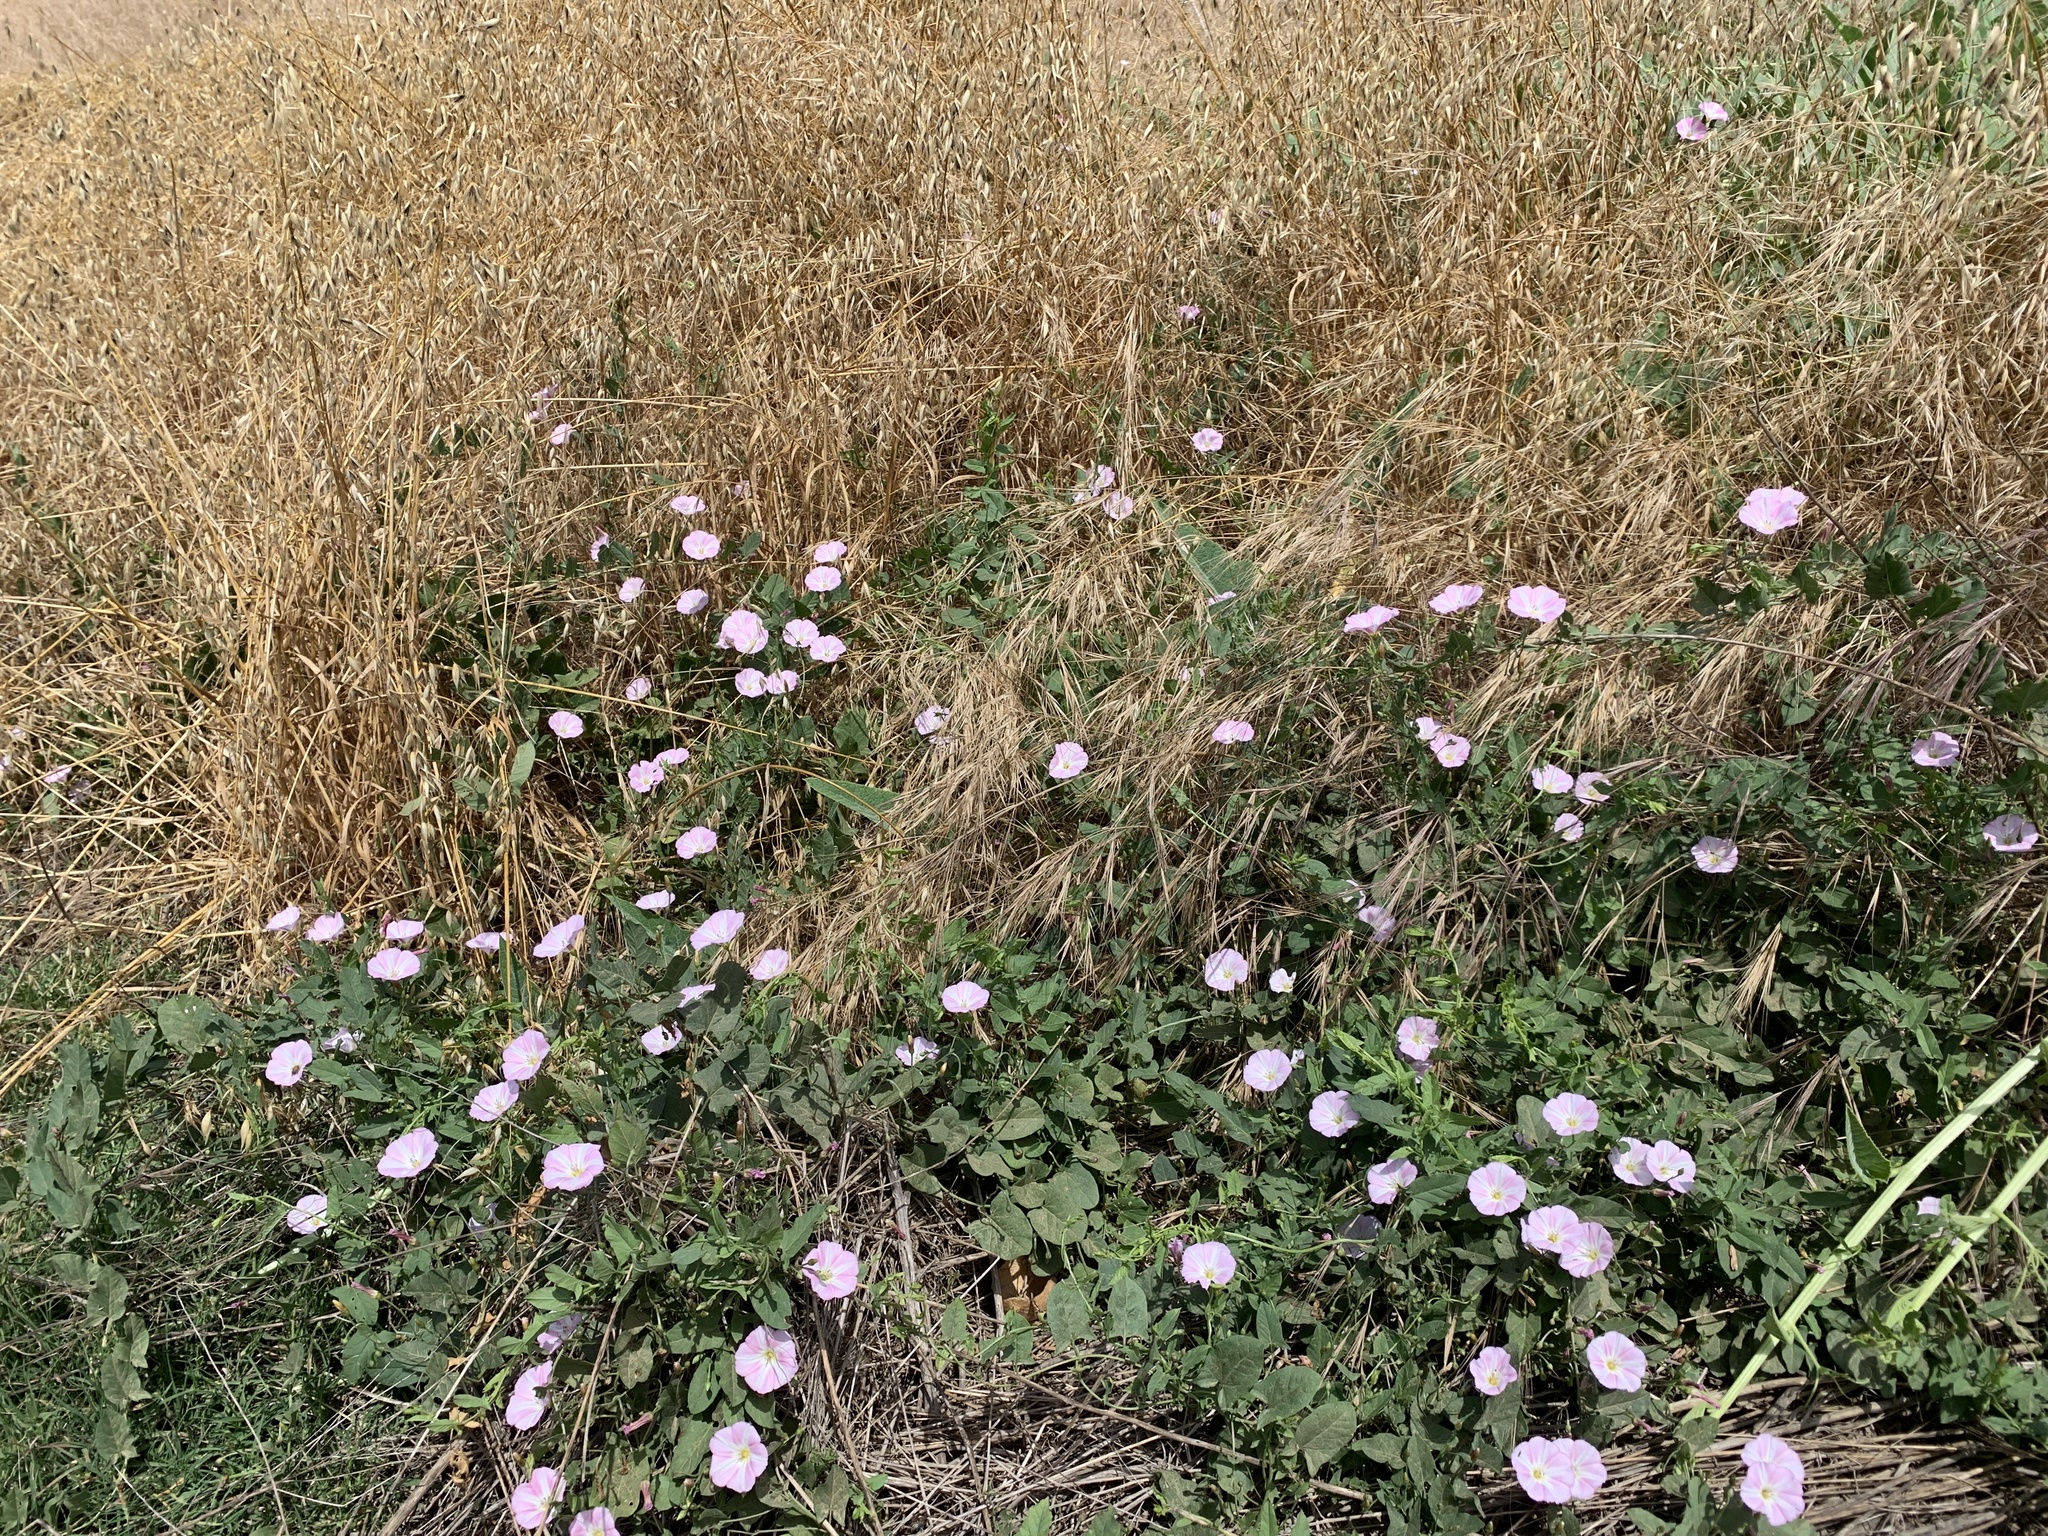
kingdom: Plantae
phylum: Tracheophyta
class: Magnoliopsida
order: Solanales
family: Convolvulaceae
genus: Convolvulus
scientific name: Convolvulus arvensis
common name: Field bindweed
